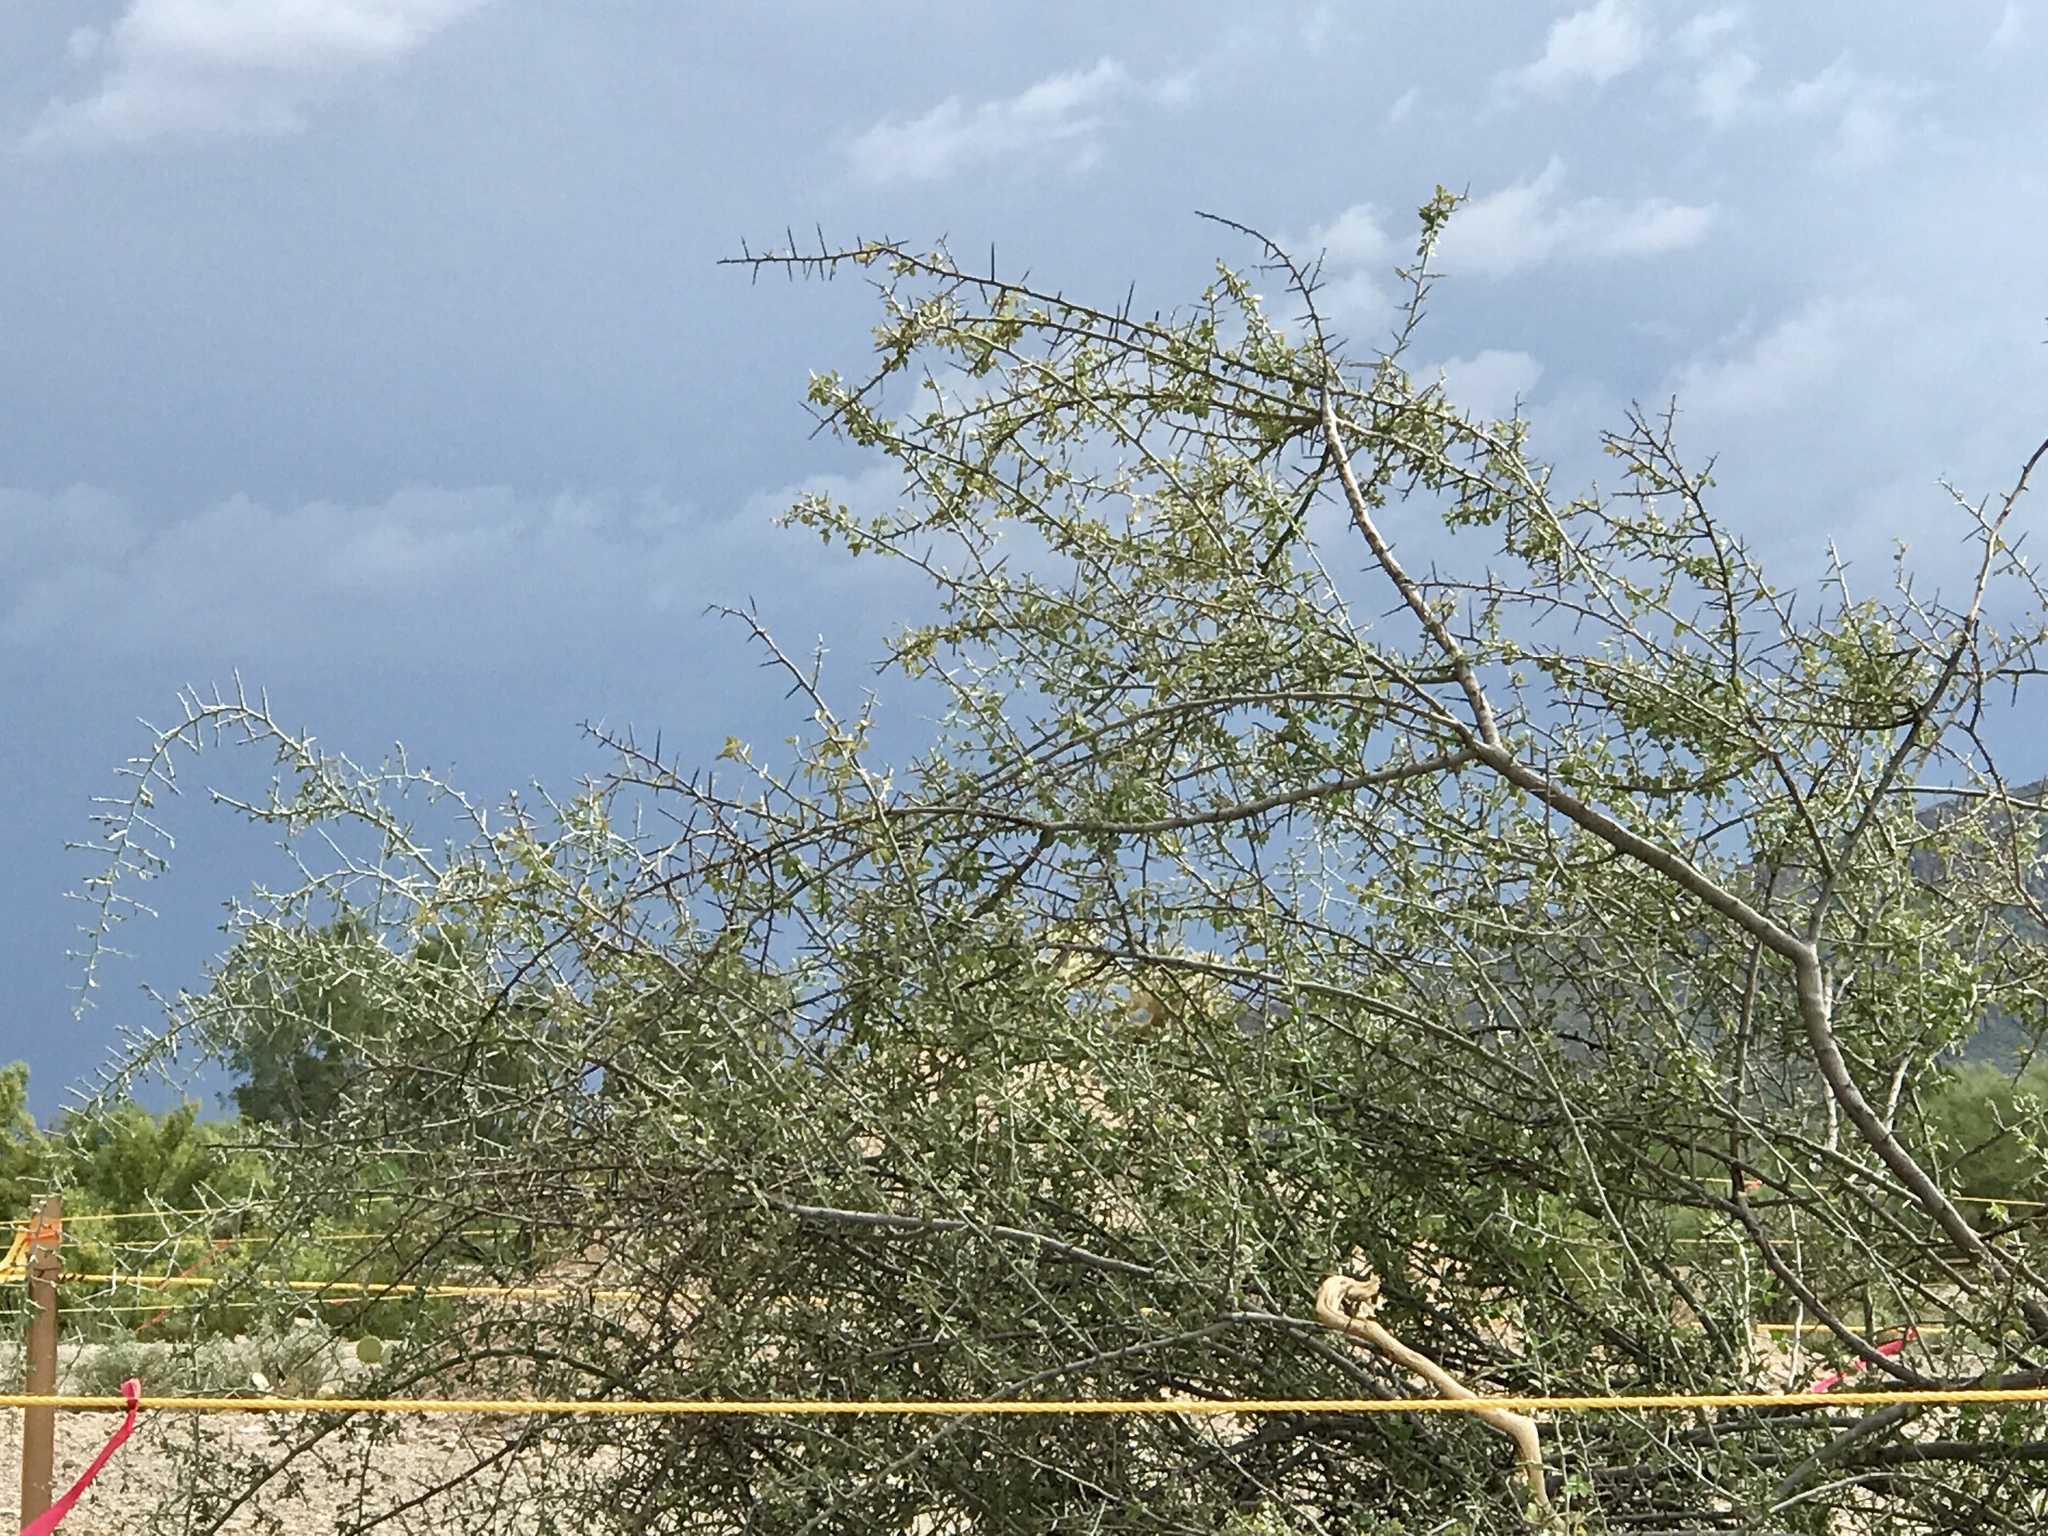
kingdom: Plantae
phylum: Tracheophyta
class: Magnoliopsida
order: Rosales
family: Rhamnaceae
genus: Sarcomphalus
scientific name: Sarcomphalus obtusifolius
